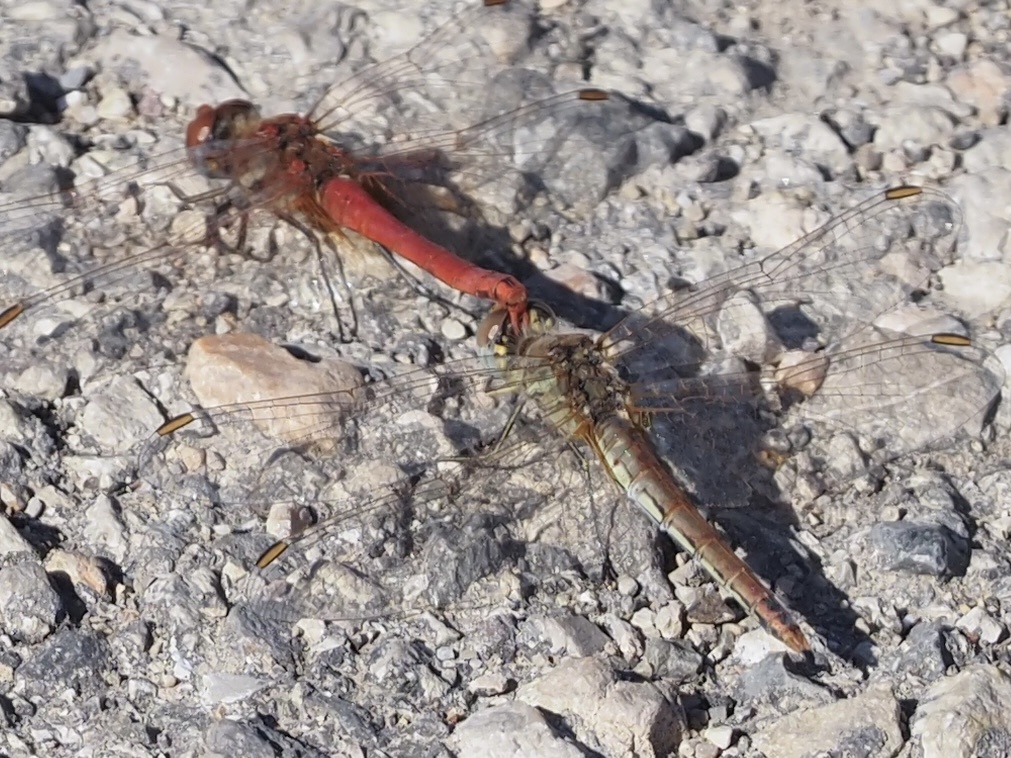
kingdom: Animalia
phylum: Arthropoda
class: Insecta
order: Odonata
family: Libellulidae
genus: Sympetrum
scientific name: Sympetrum fonscolombii
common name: Red-veined darter
